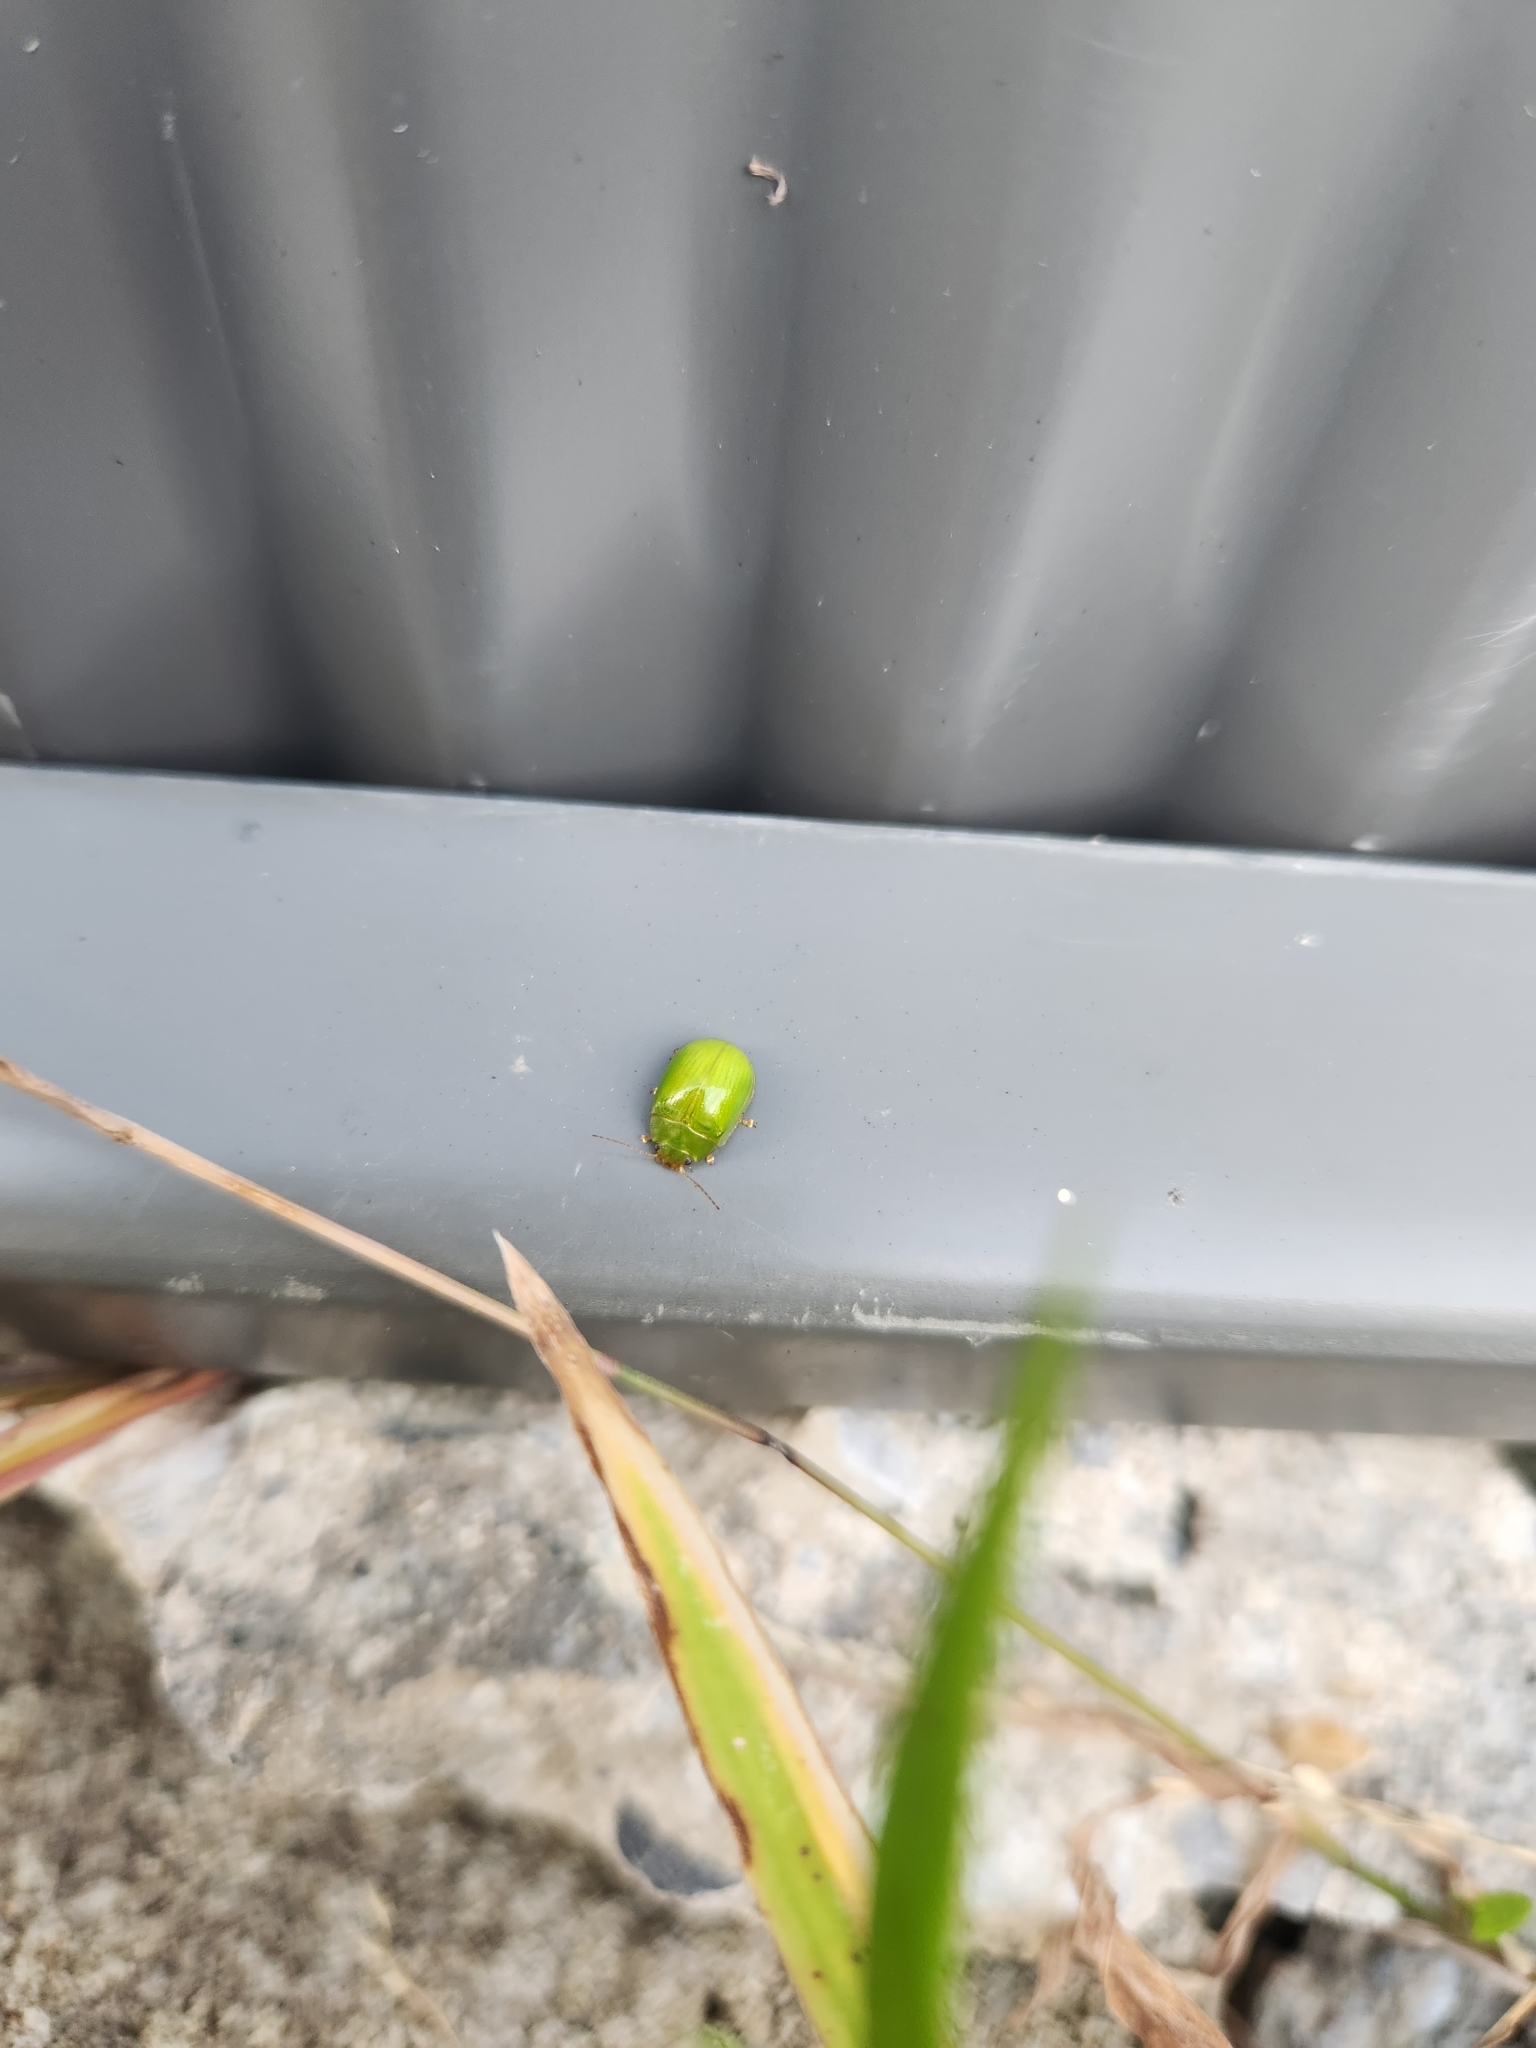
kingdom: Animalia
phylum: Arthropoda
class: Insecta
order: Coleoptera
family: Chrysomelidae
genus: Paropsides
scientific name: Paropsides
